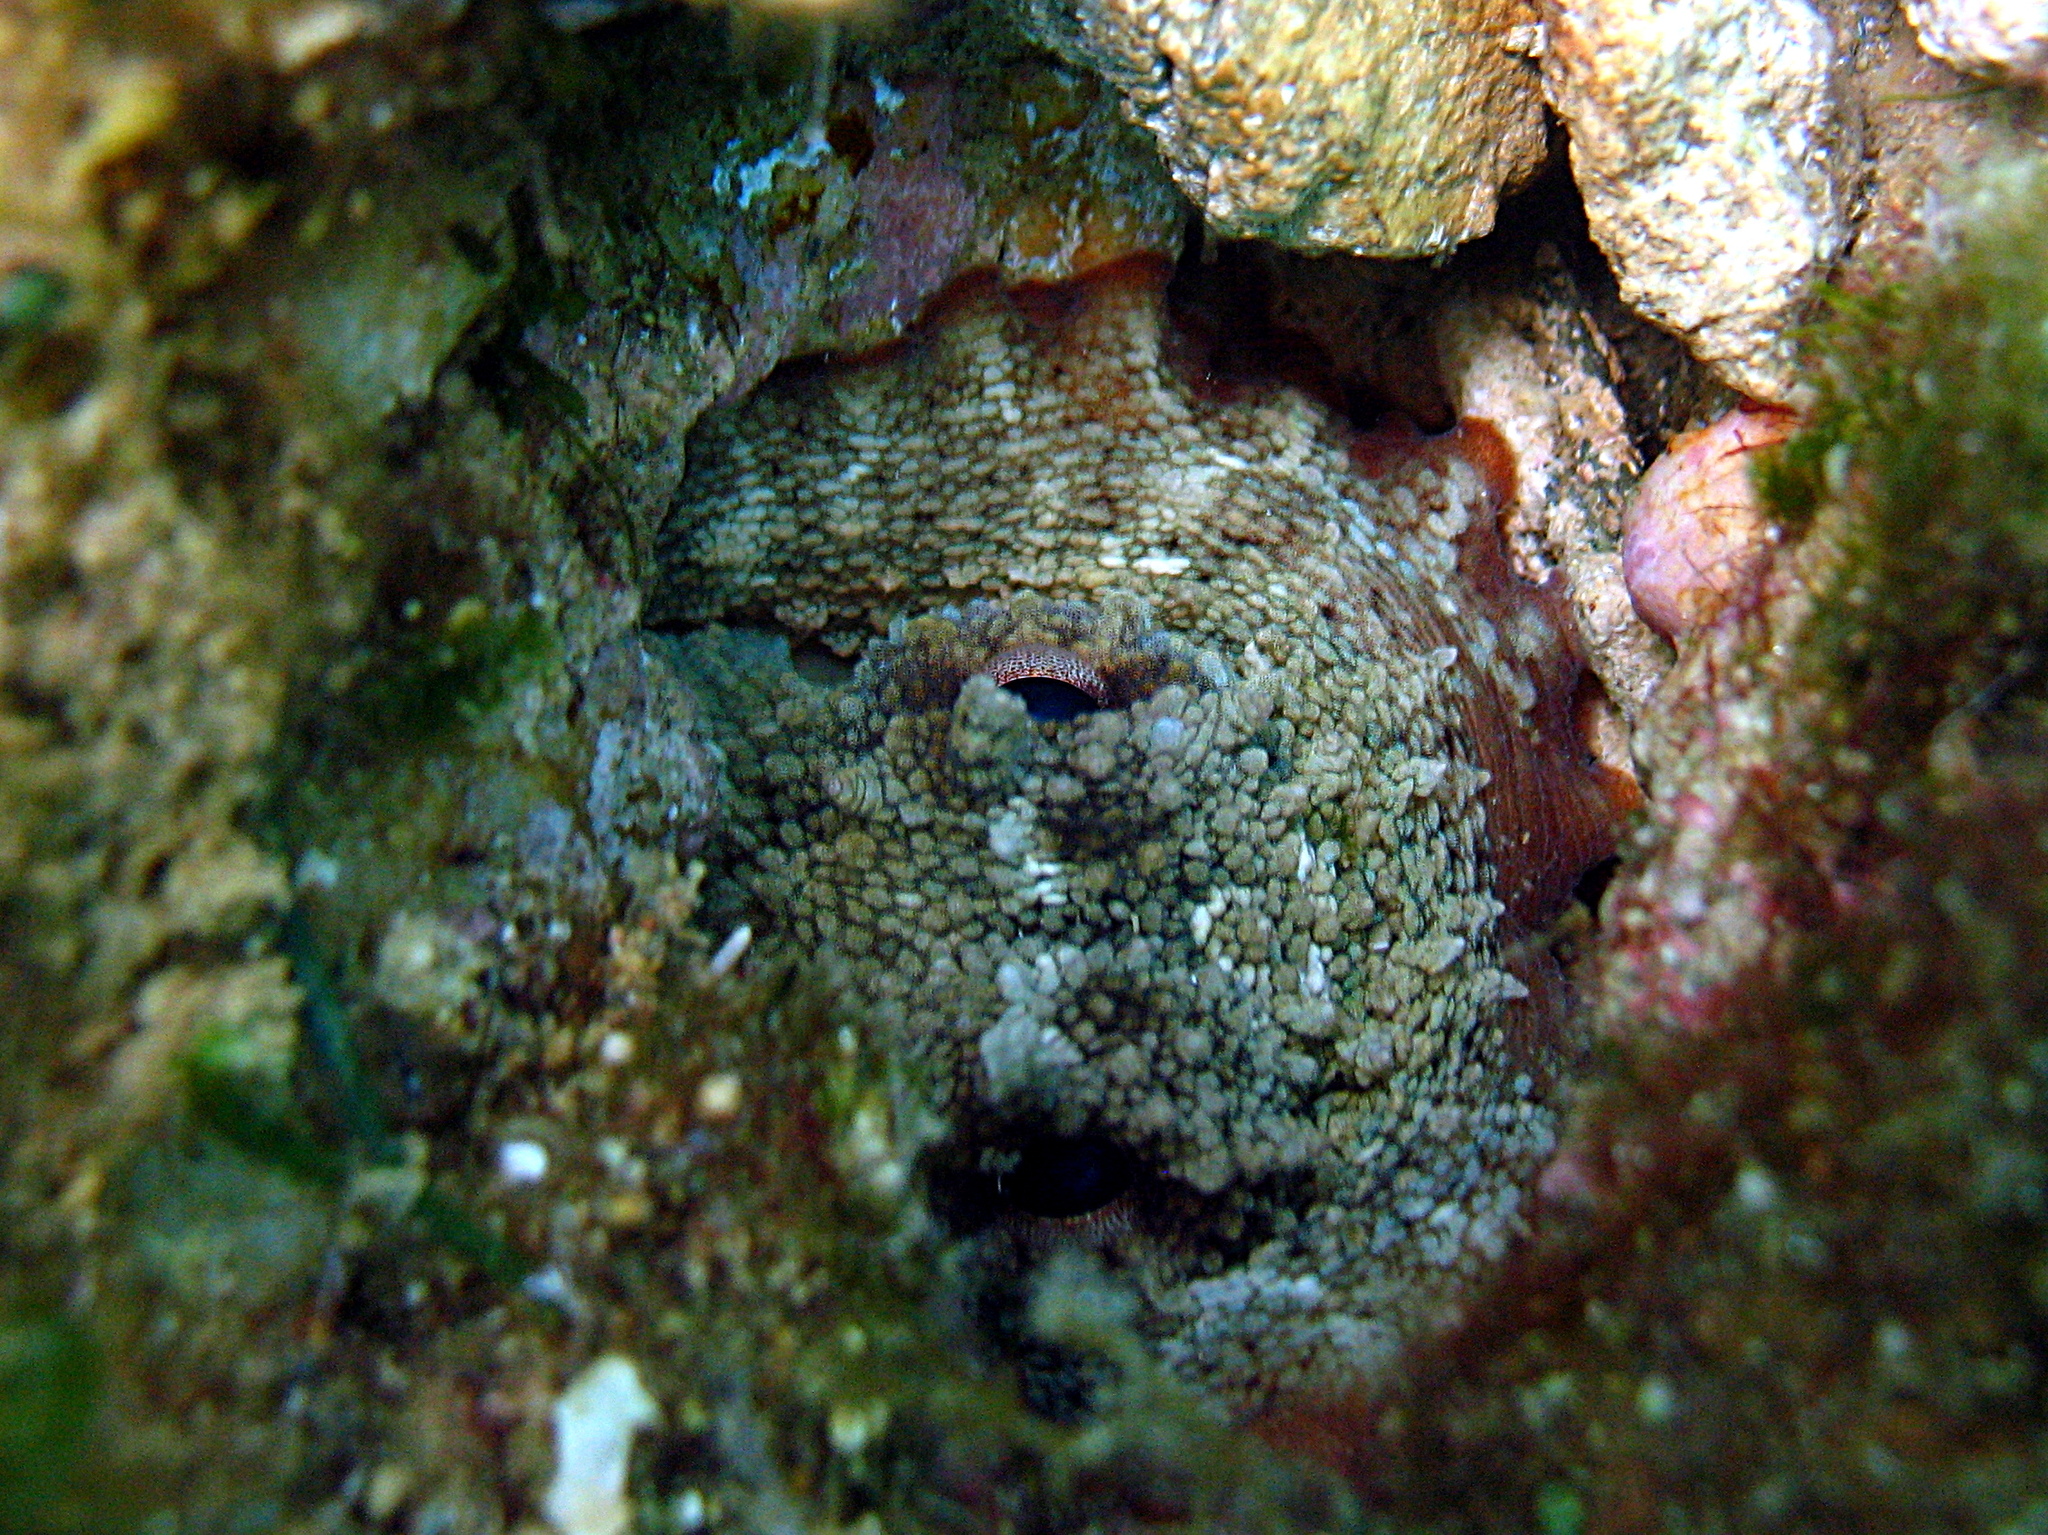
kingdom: Animalia
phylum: Mollusca
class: Cephalopoda
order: Octopoda
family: Octopodidae
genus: Octopus
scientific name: Octopus vulgaris
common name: Common octopus
